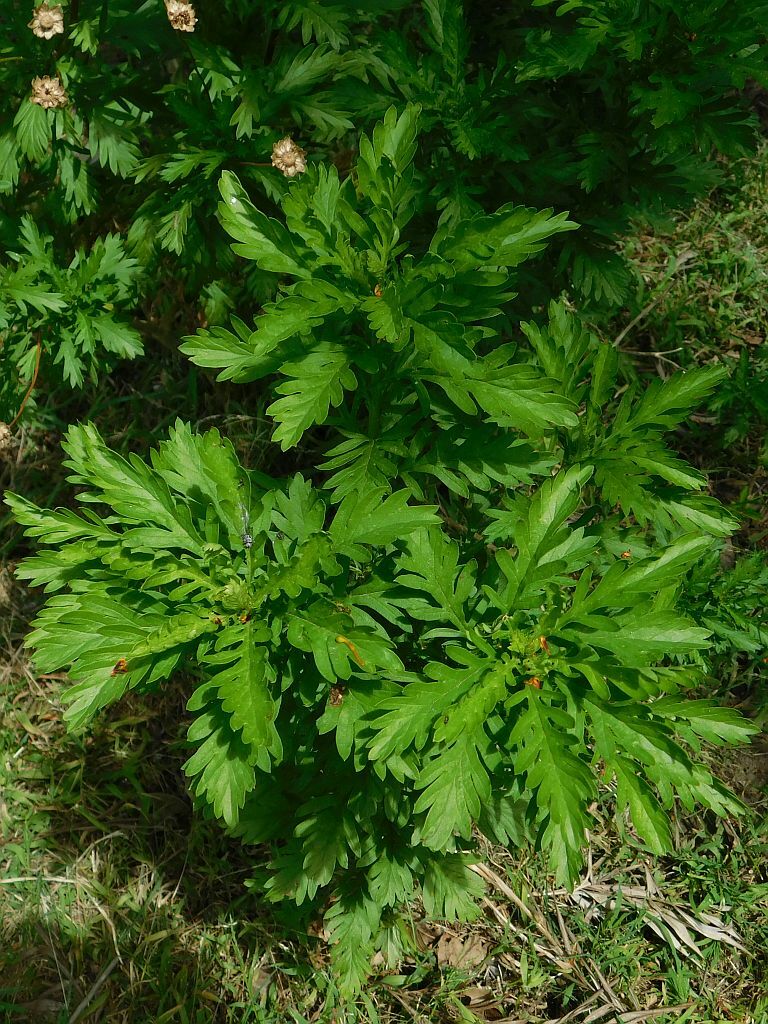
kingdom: Plantae
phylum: Tracheophyta
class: Magnoliopsida
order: Asterales
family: Asteraceae
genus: Euryops
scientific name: Euryops chrysanthemoides
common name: Bull's eye
